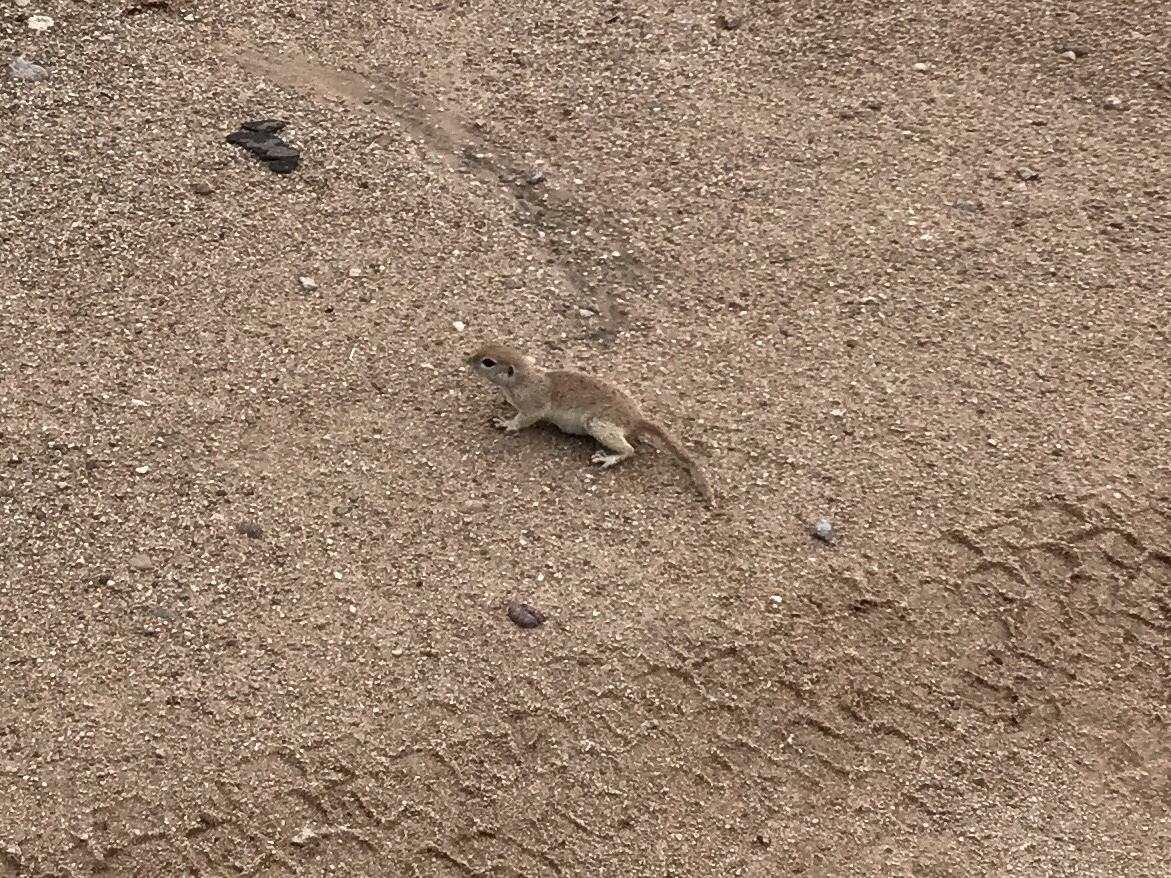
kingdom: Animalia
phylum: Chordata
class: Mammalia
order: Rodentia
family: Sciuridae
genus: Xerospermophilus
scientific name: Xerospermophilus tereticaudus
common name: Round-tailed ground squirrel
